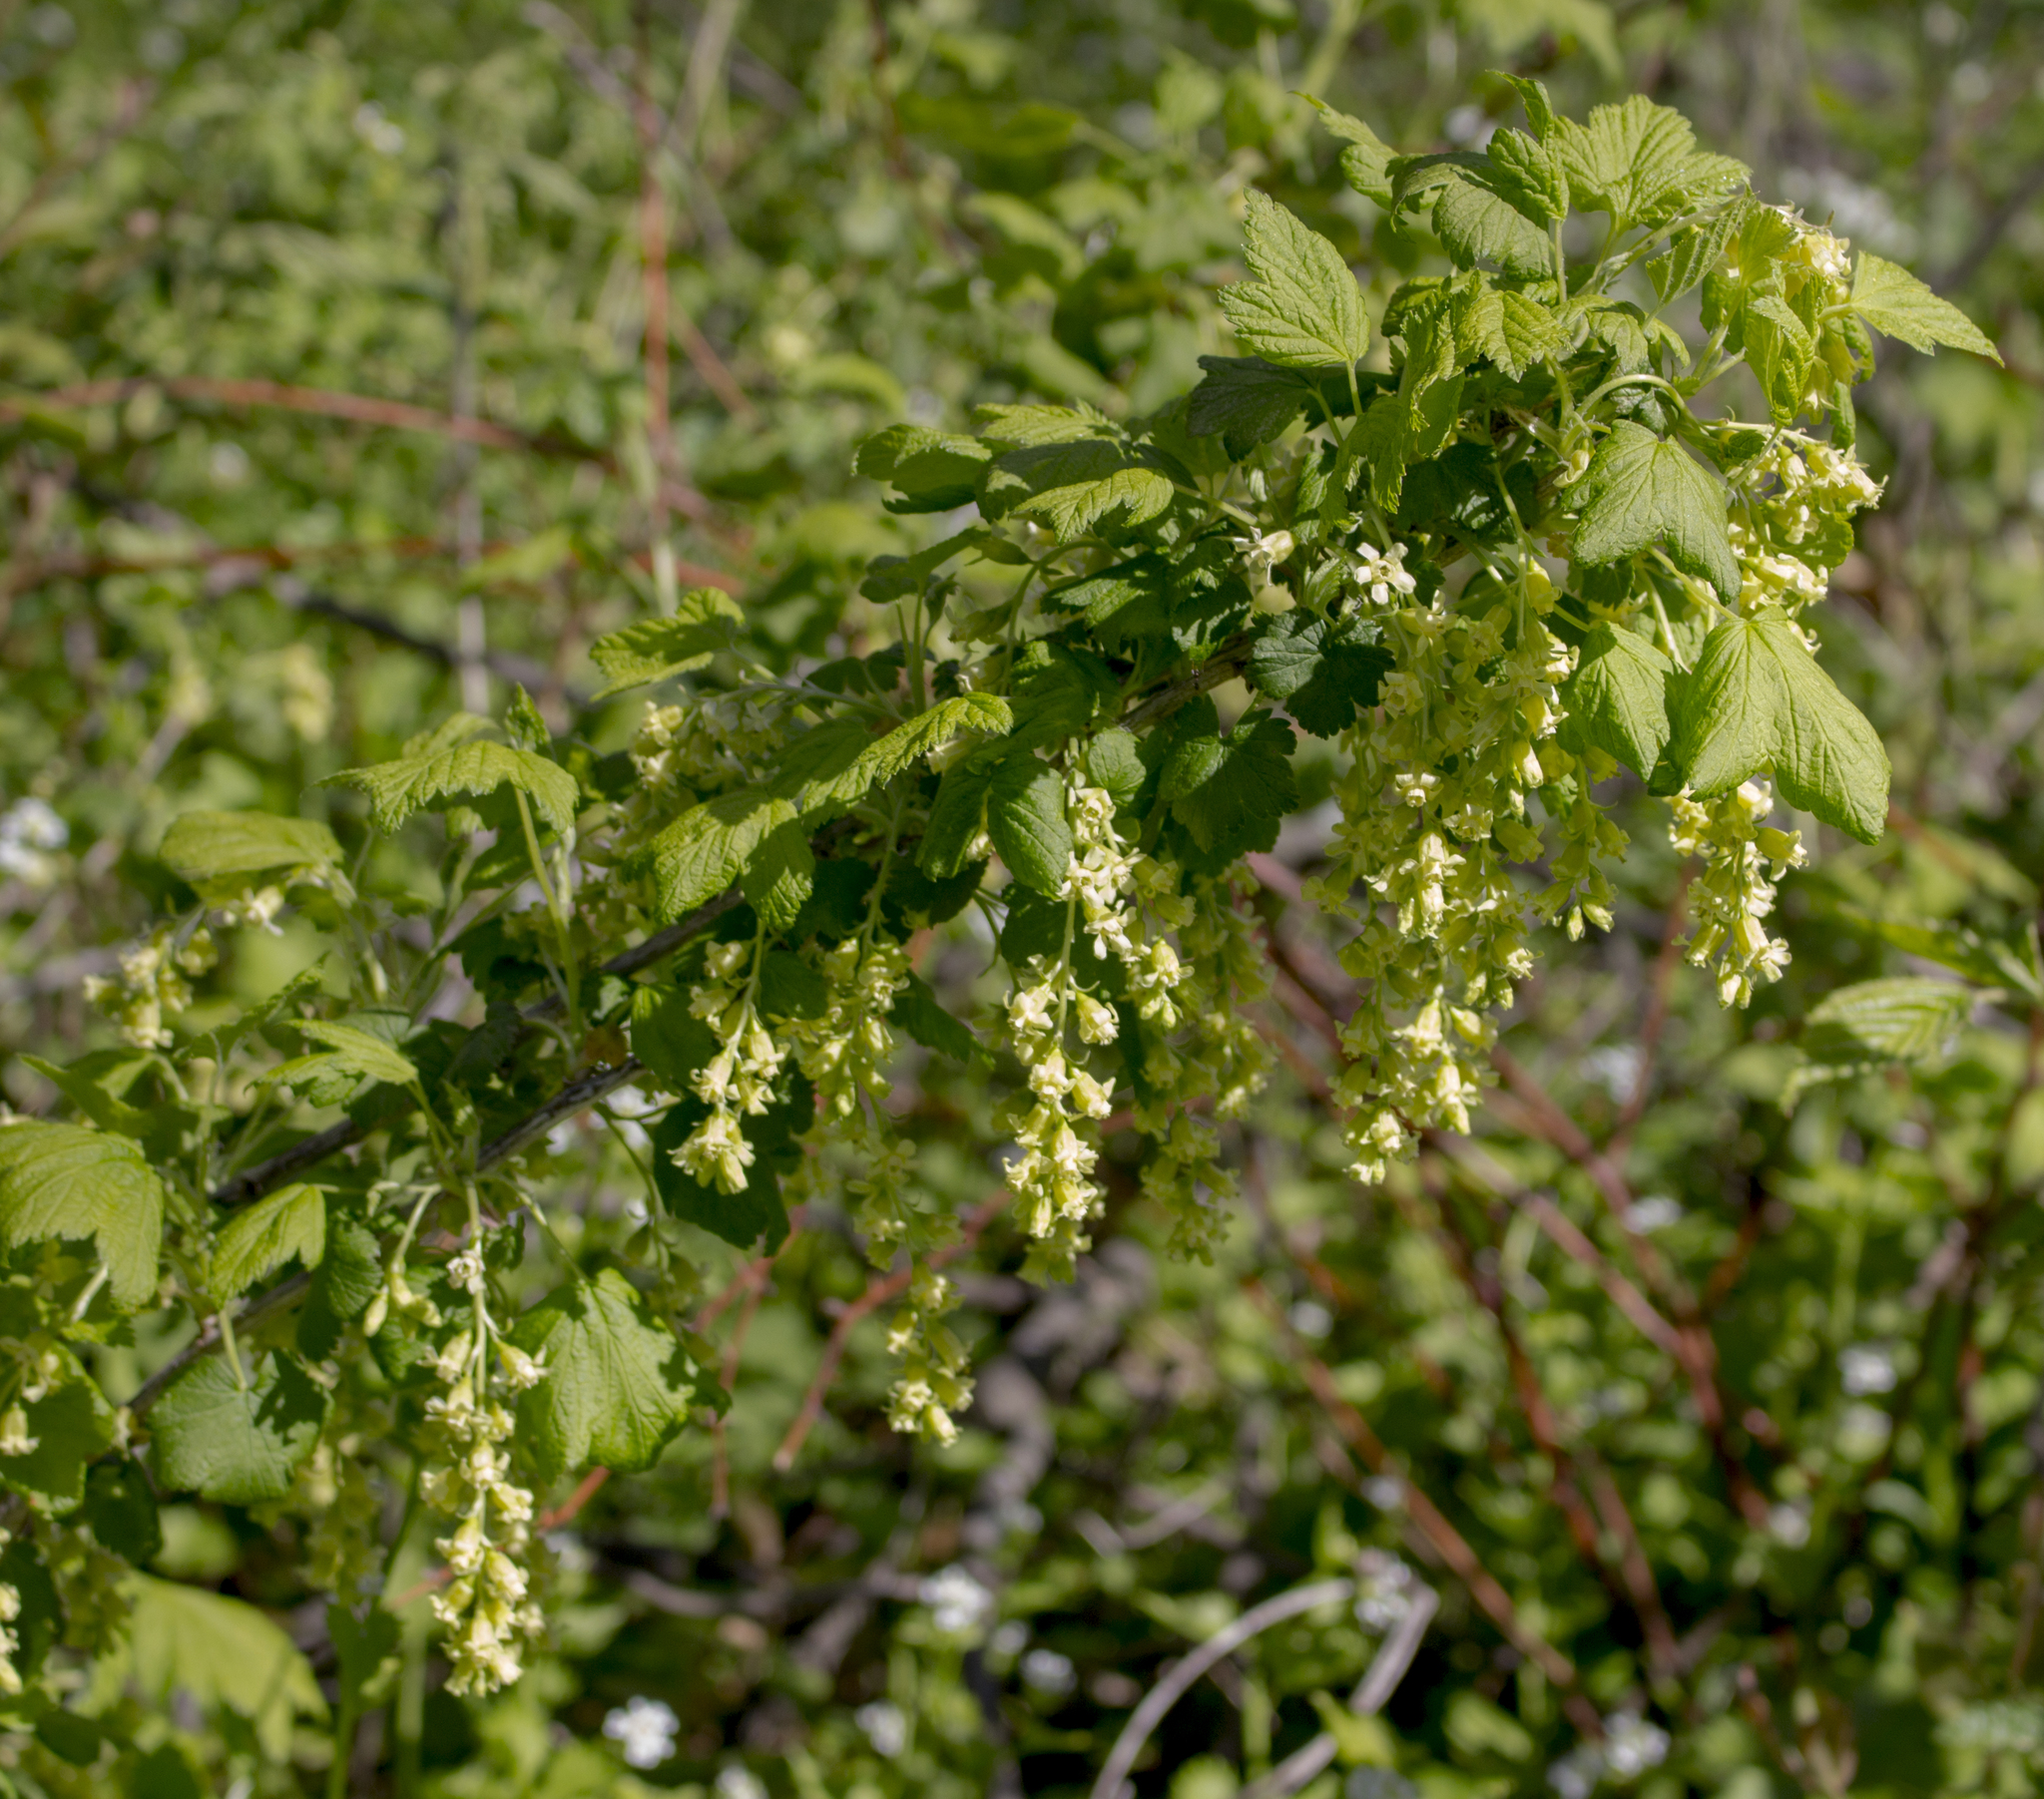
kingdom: Plantae
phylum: Tracheophyta
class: Magnoliopsida
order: Saxifragales
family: Grossulariaceae
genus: Ribes
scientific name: Ribes americanum
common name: American black currant
